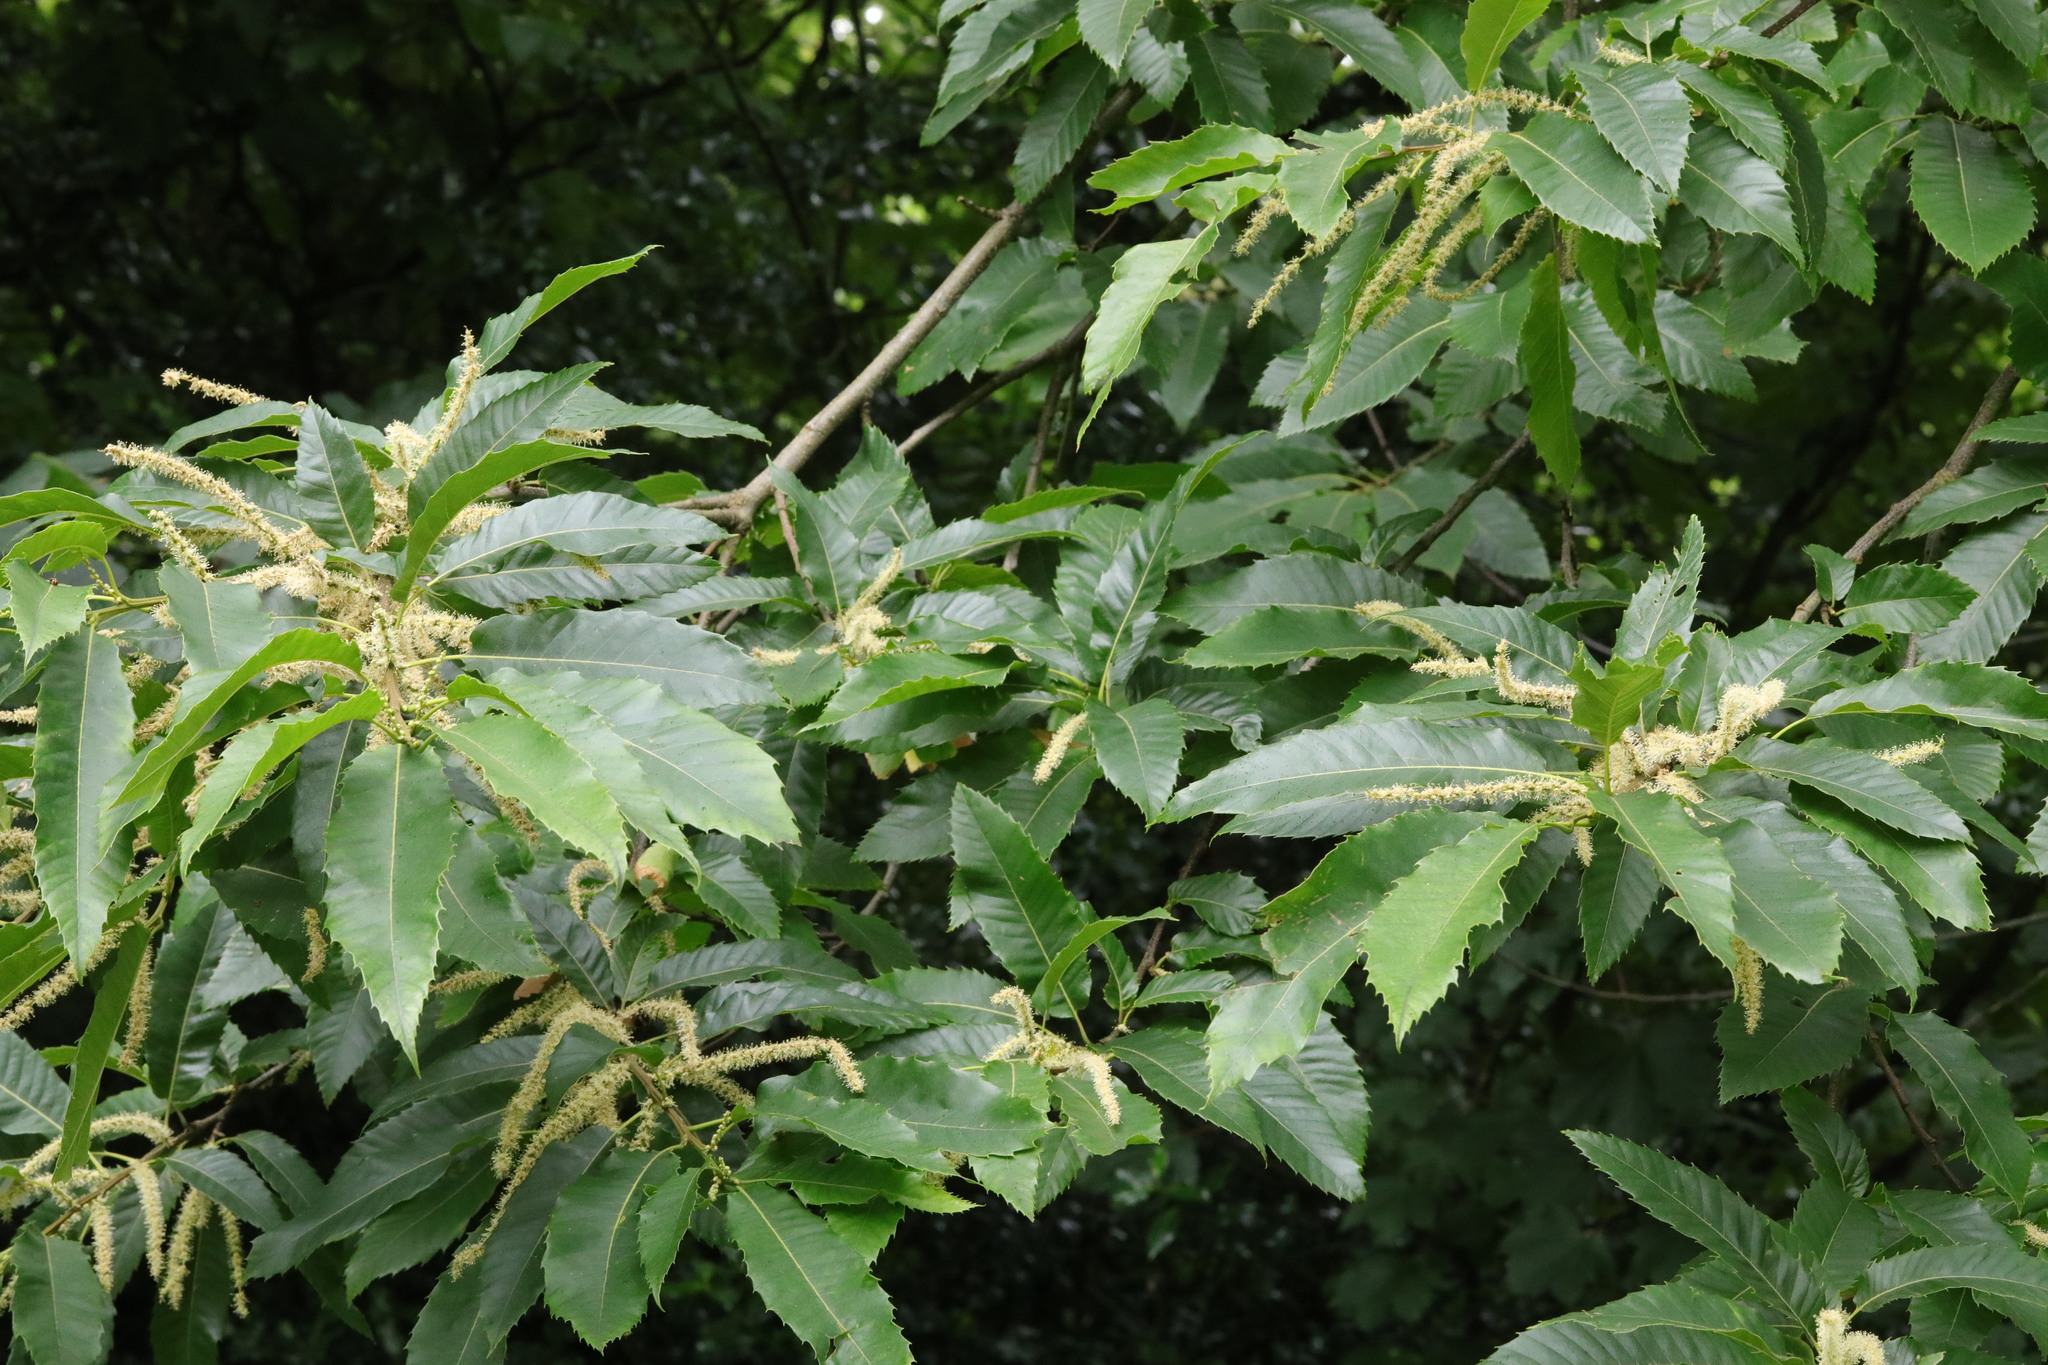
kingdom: Plantae
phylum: Tracheophyta
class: Magnoliopsida
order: Fagales
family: Fagaceae
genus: Castanea
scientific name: Castanea sativa
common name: Sweet chestnut
